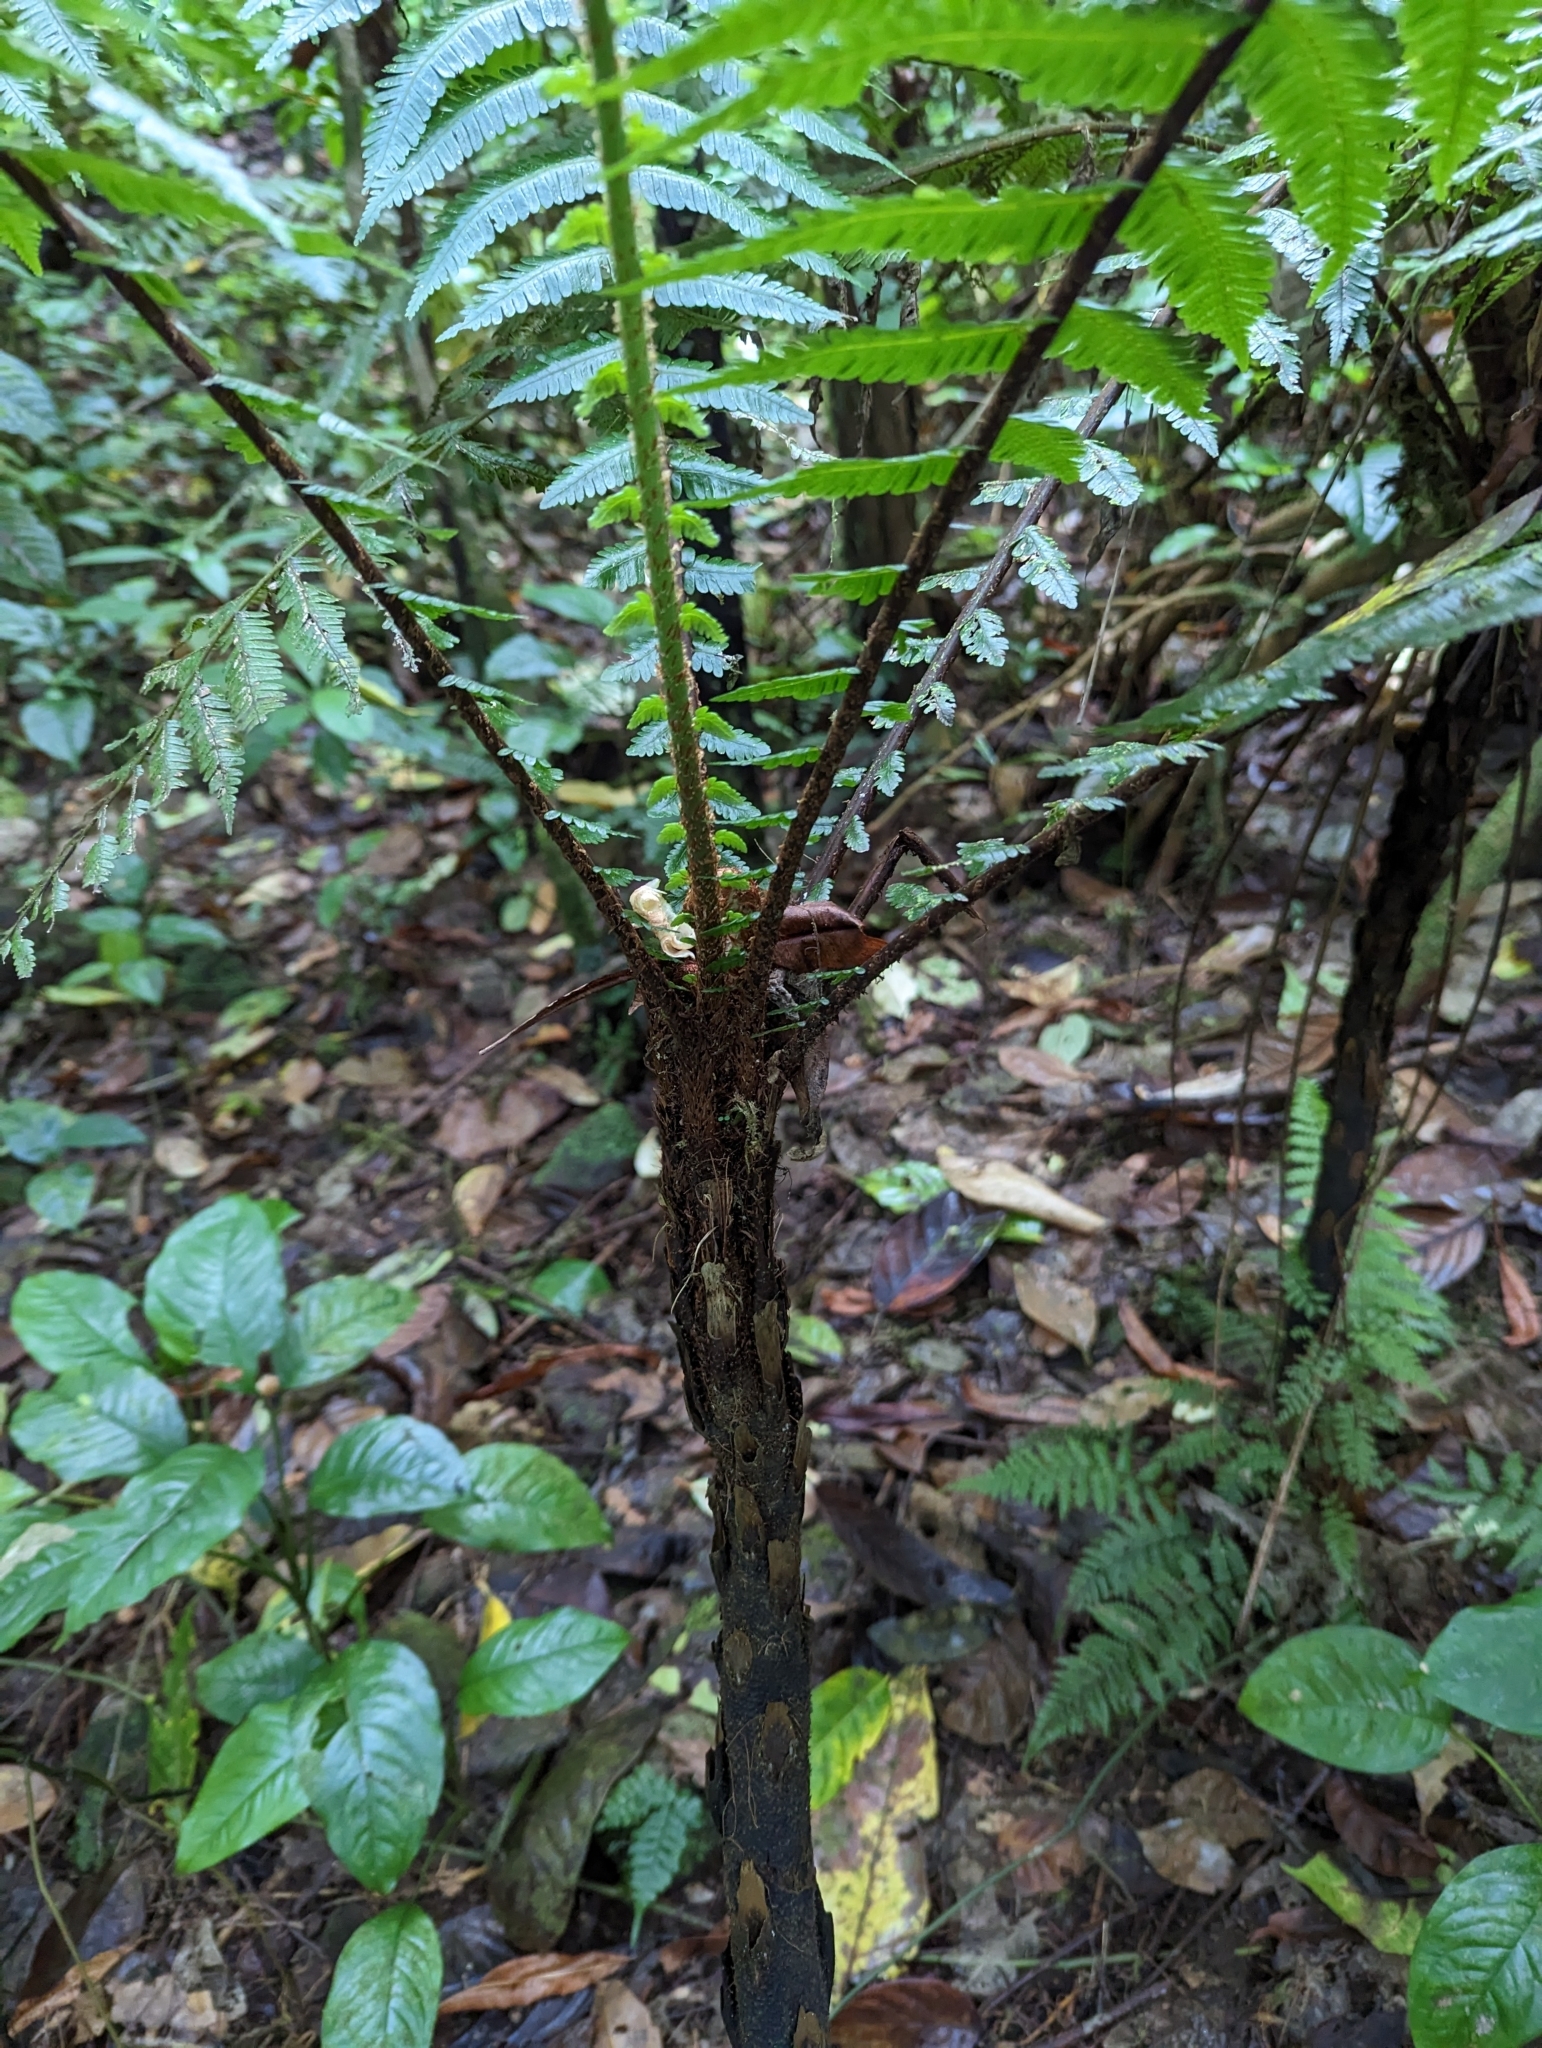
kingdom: Plantae
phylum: Tracheophyta
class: Polypodiopsida
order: Cyatheales
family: Cyatheaceae
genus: Alsophila
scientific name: Alsophila welwitschii
